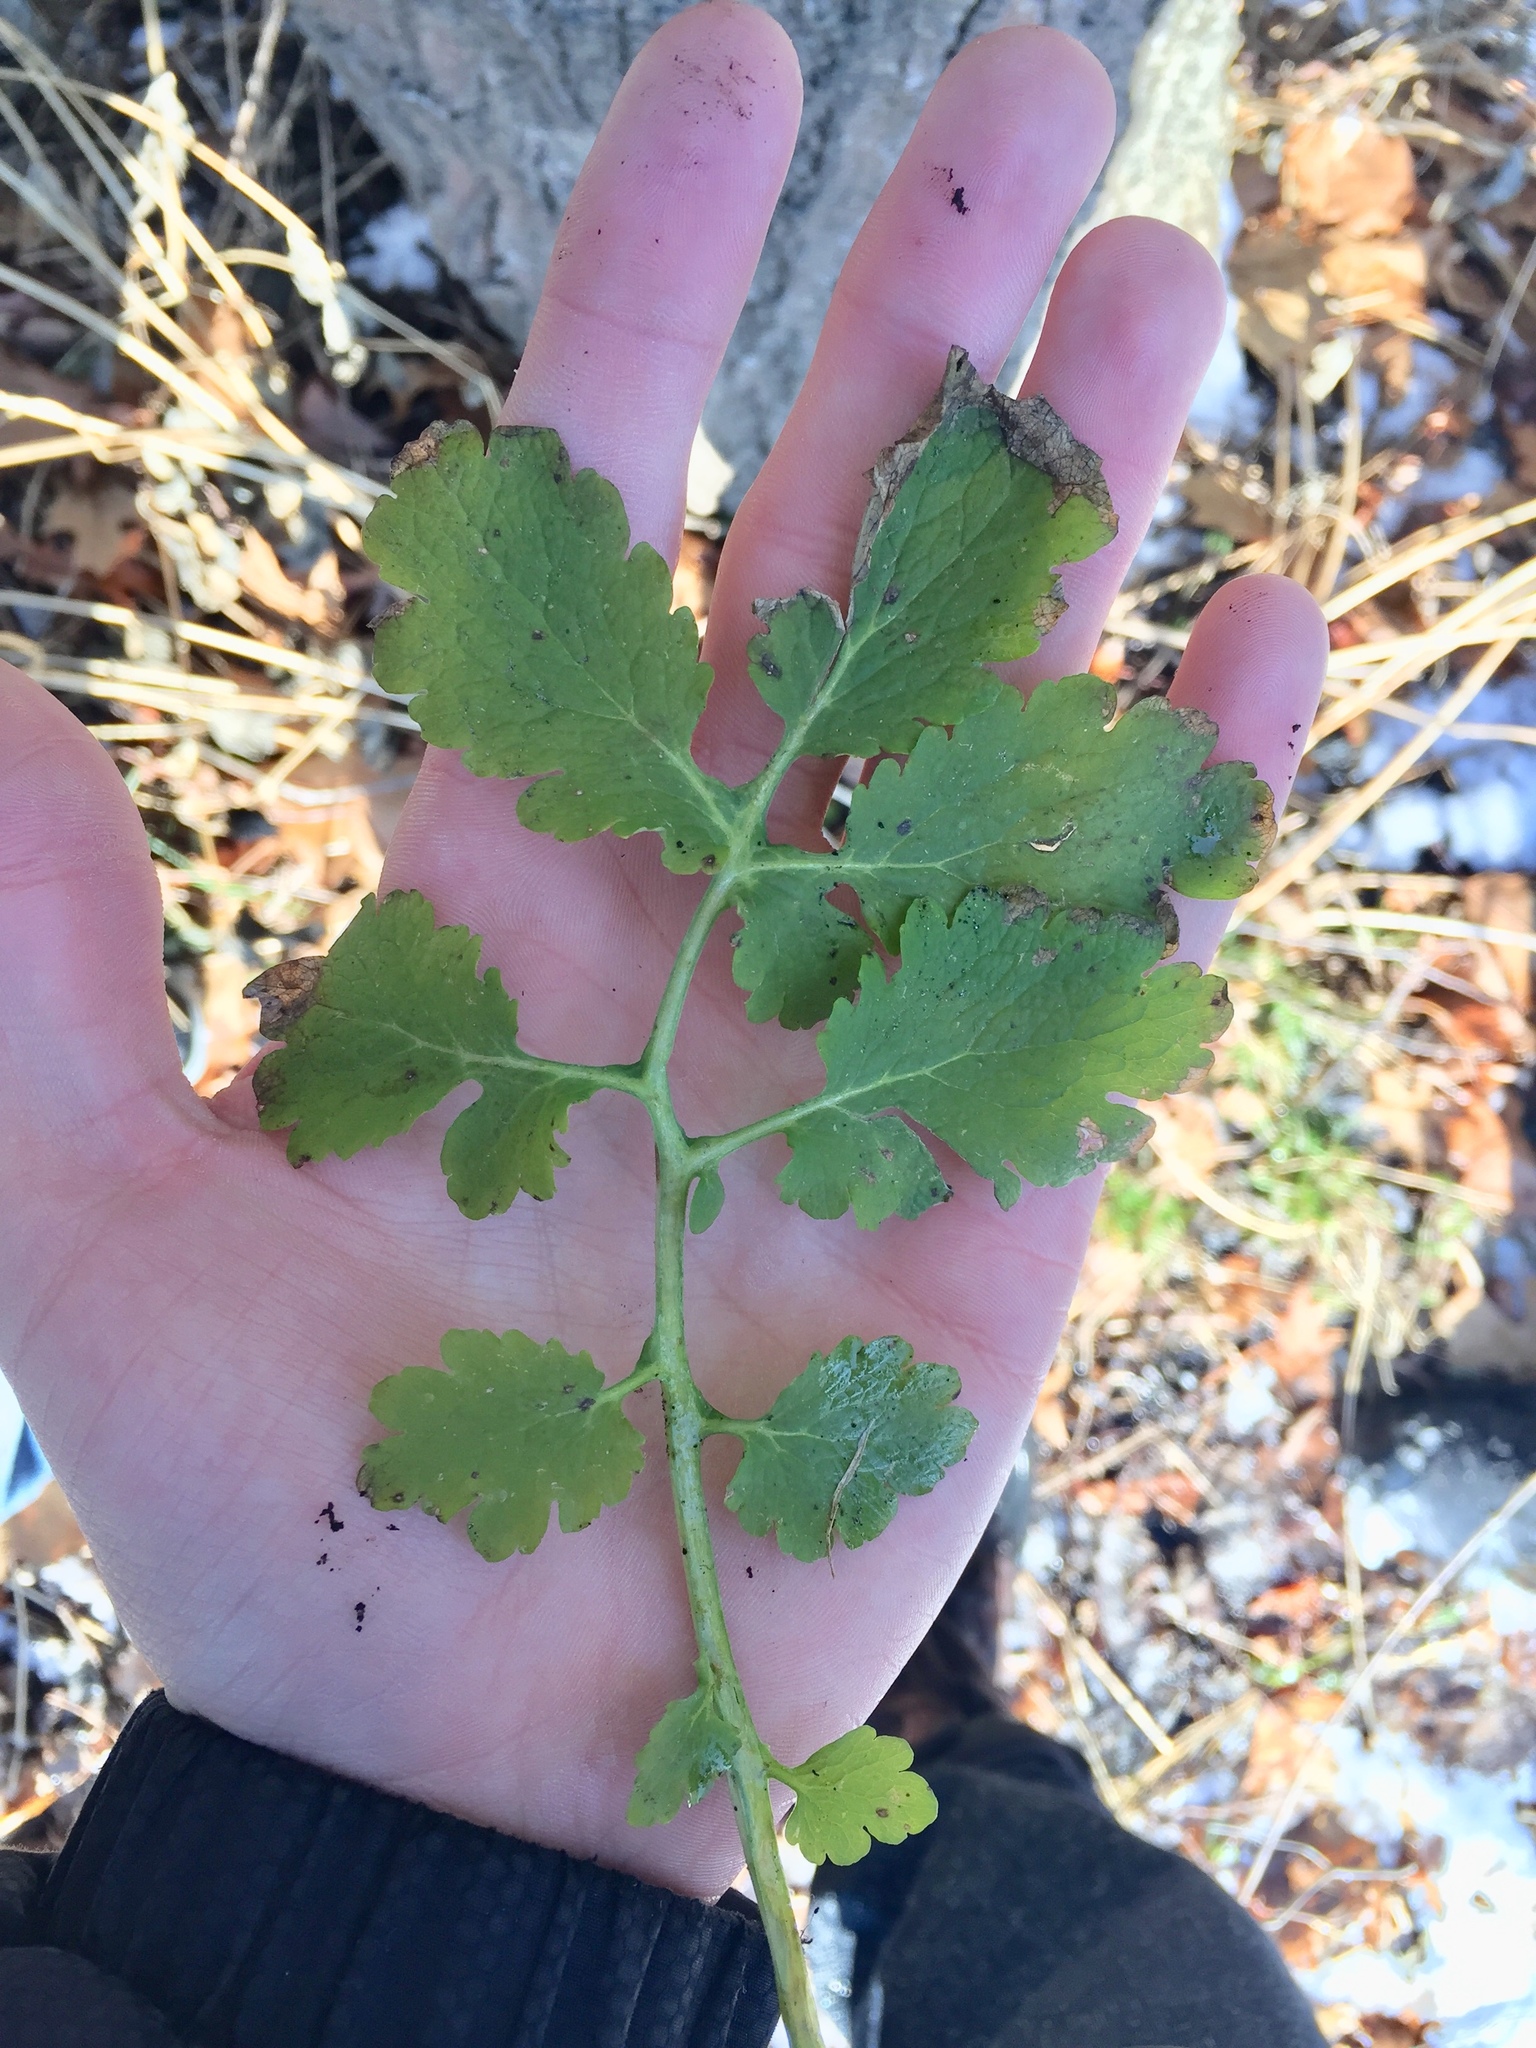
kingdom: Plantae
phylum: Tracheophyta
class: Magnoliopsida
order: Ranunculales
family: Papaveraceae
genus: Chelidonium
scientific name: Chelidonium majus
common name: Greater celandine
